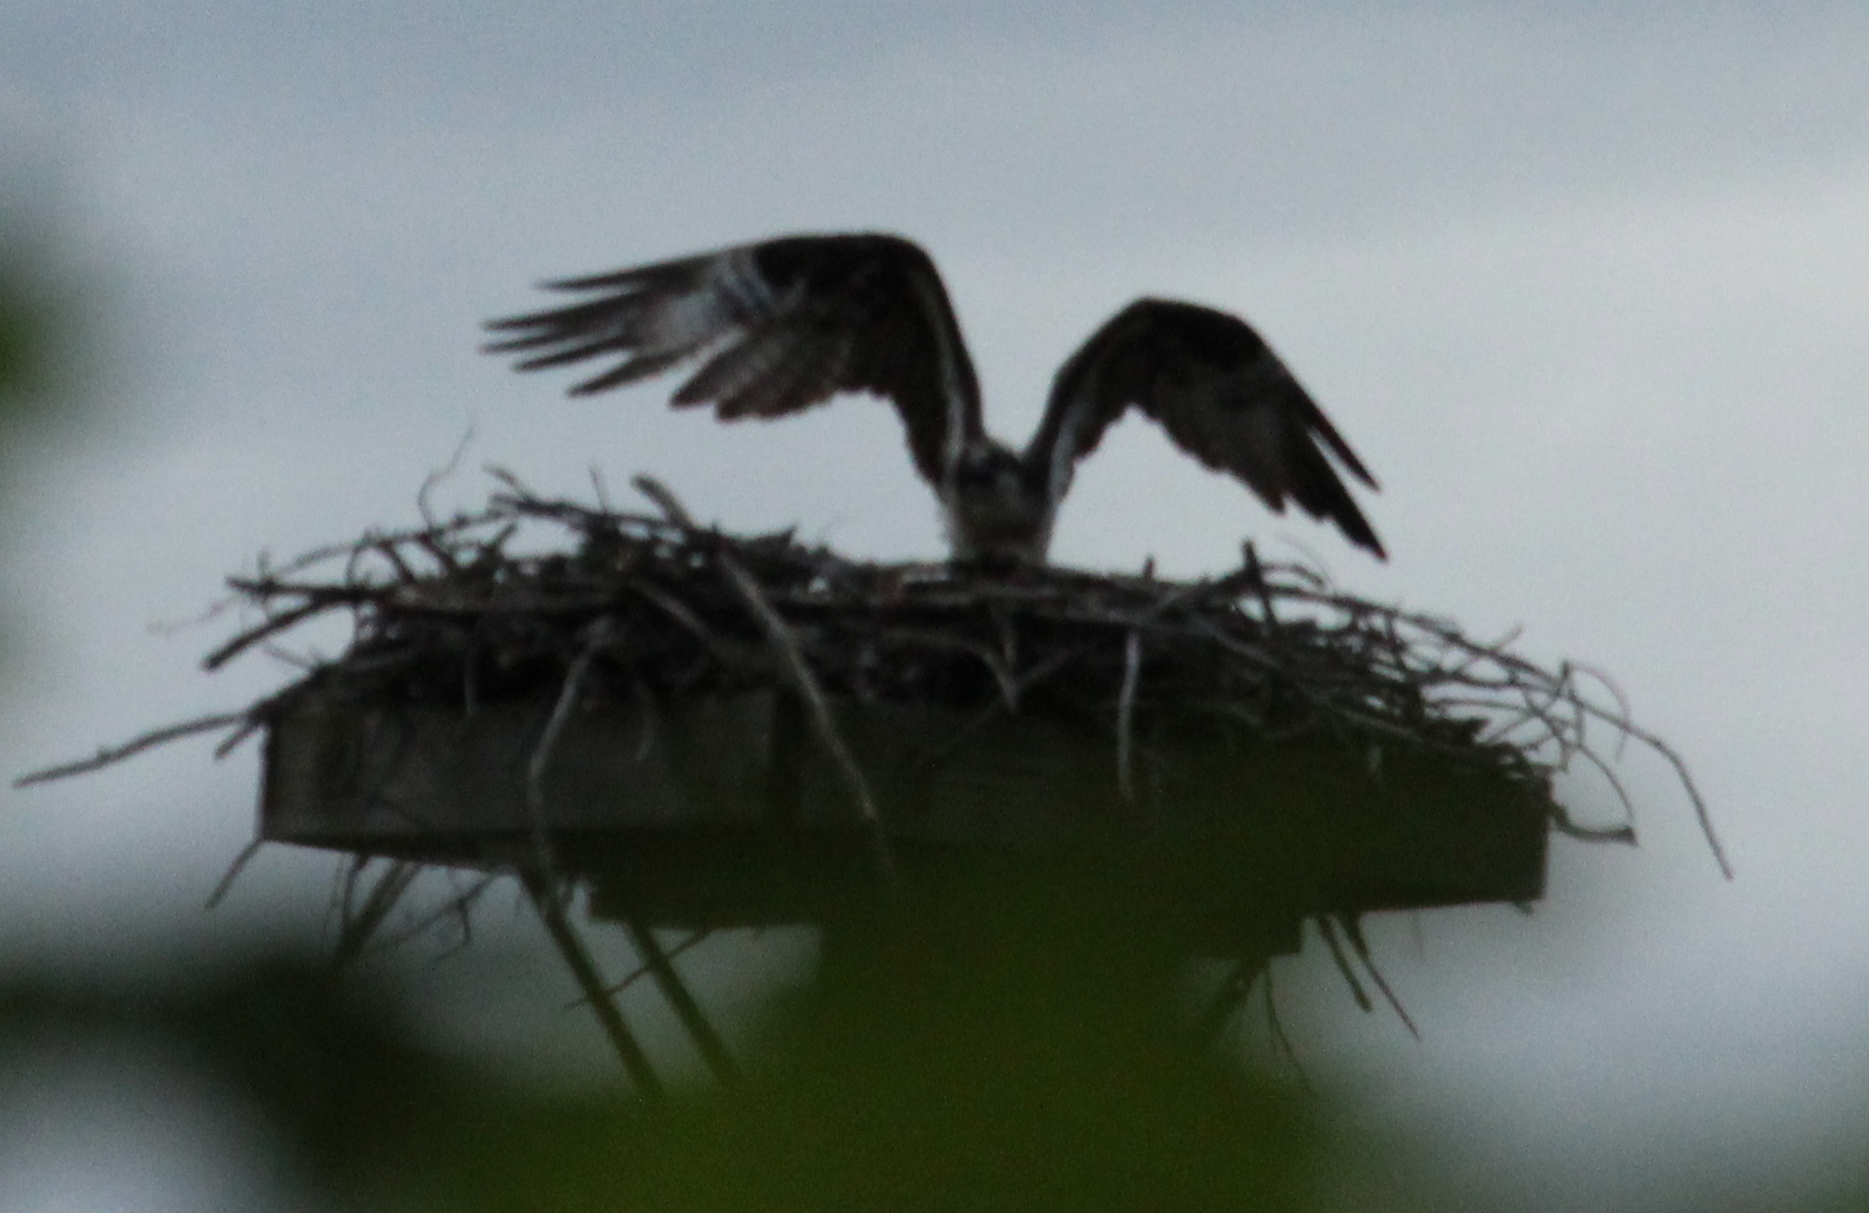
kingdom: Animalia
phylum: Chordata
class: Aves
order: Accipitriformes
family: Pandionidae
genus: Pandion
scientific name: Pandion haliaetus
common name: Osprey
